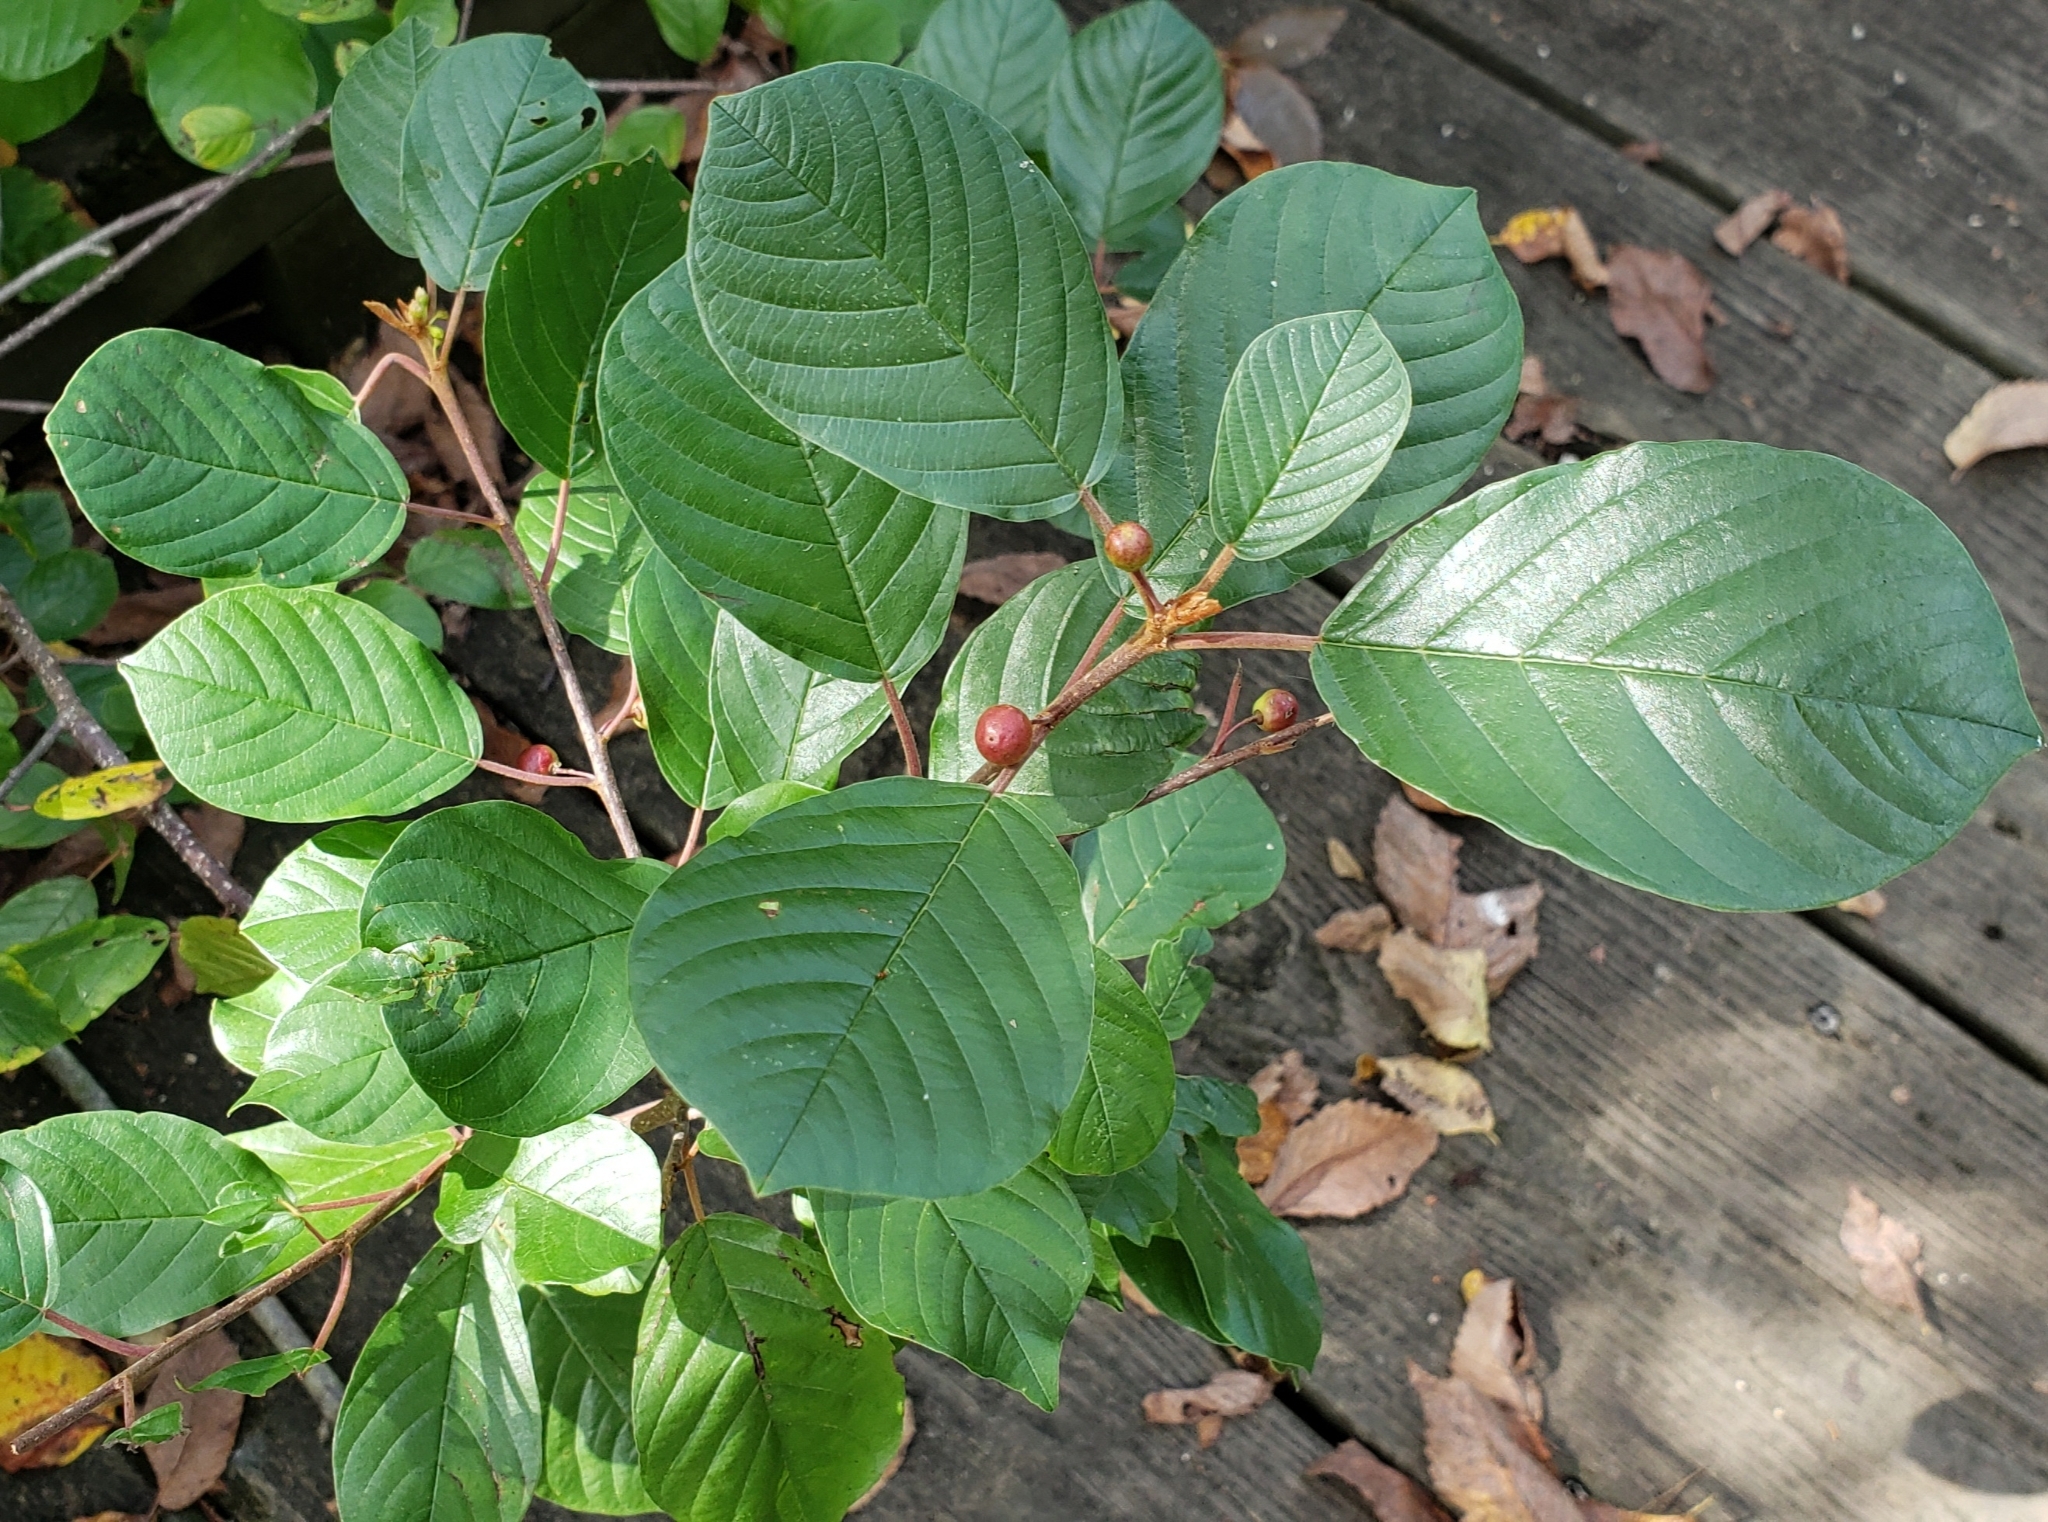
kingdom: Plantae
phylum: Tracheophyta
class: Magnoliopsida
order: Rosales
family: Rhamnaceae
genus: Frangula
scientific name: Frangula alnus
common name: Alder buckthorn
